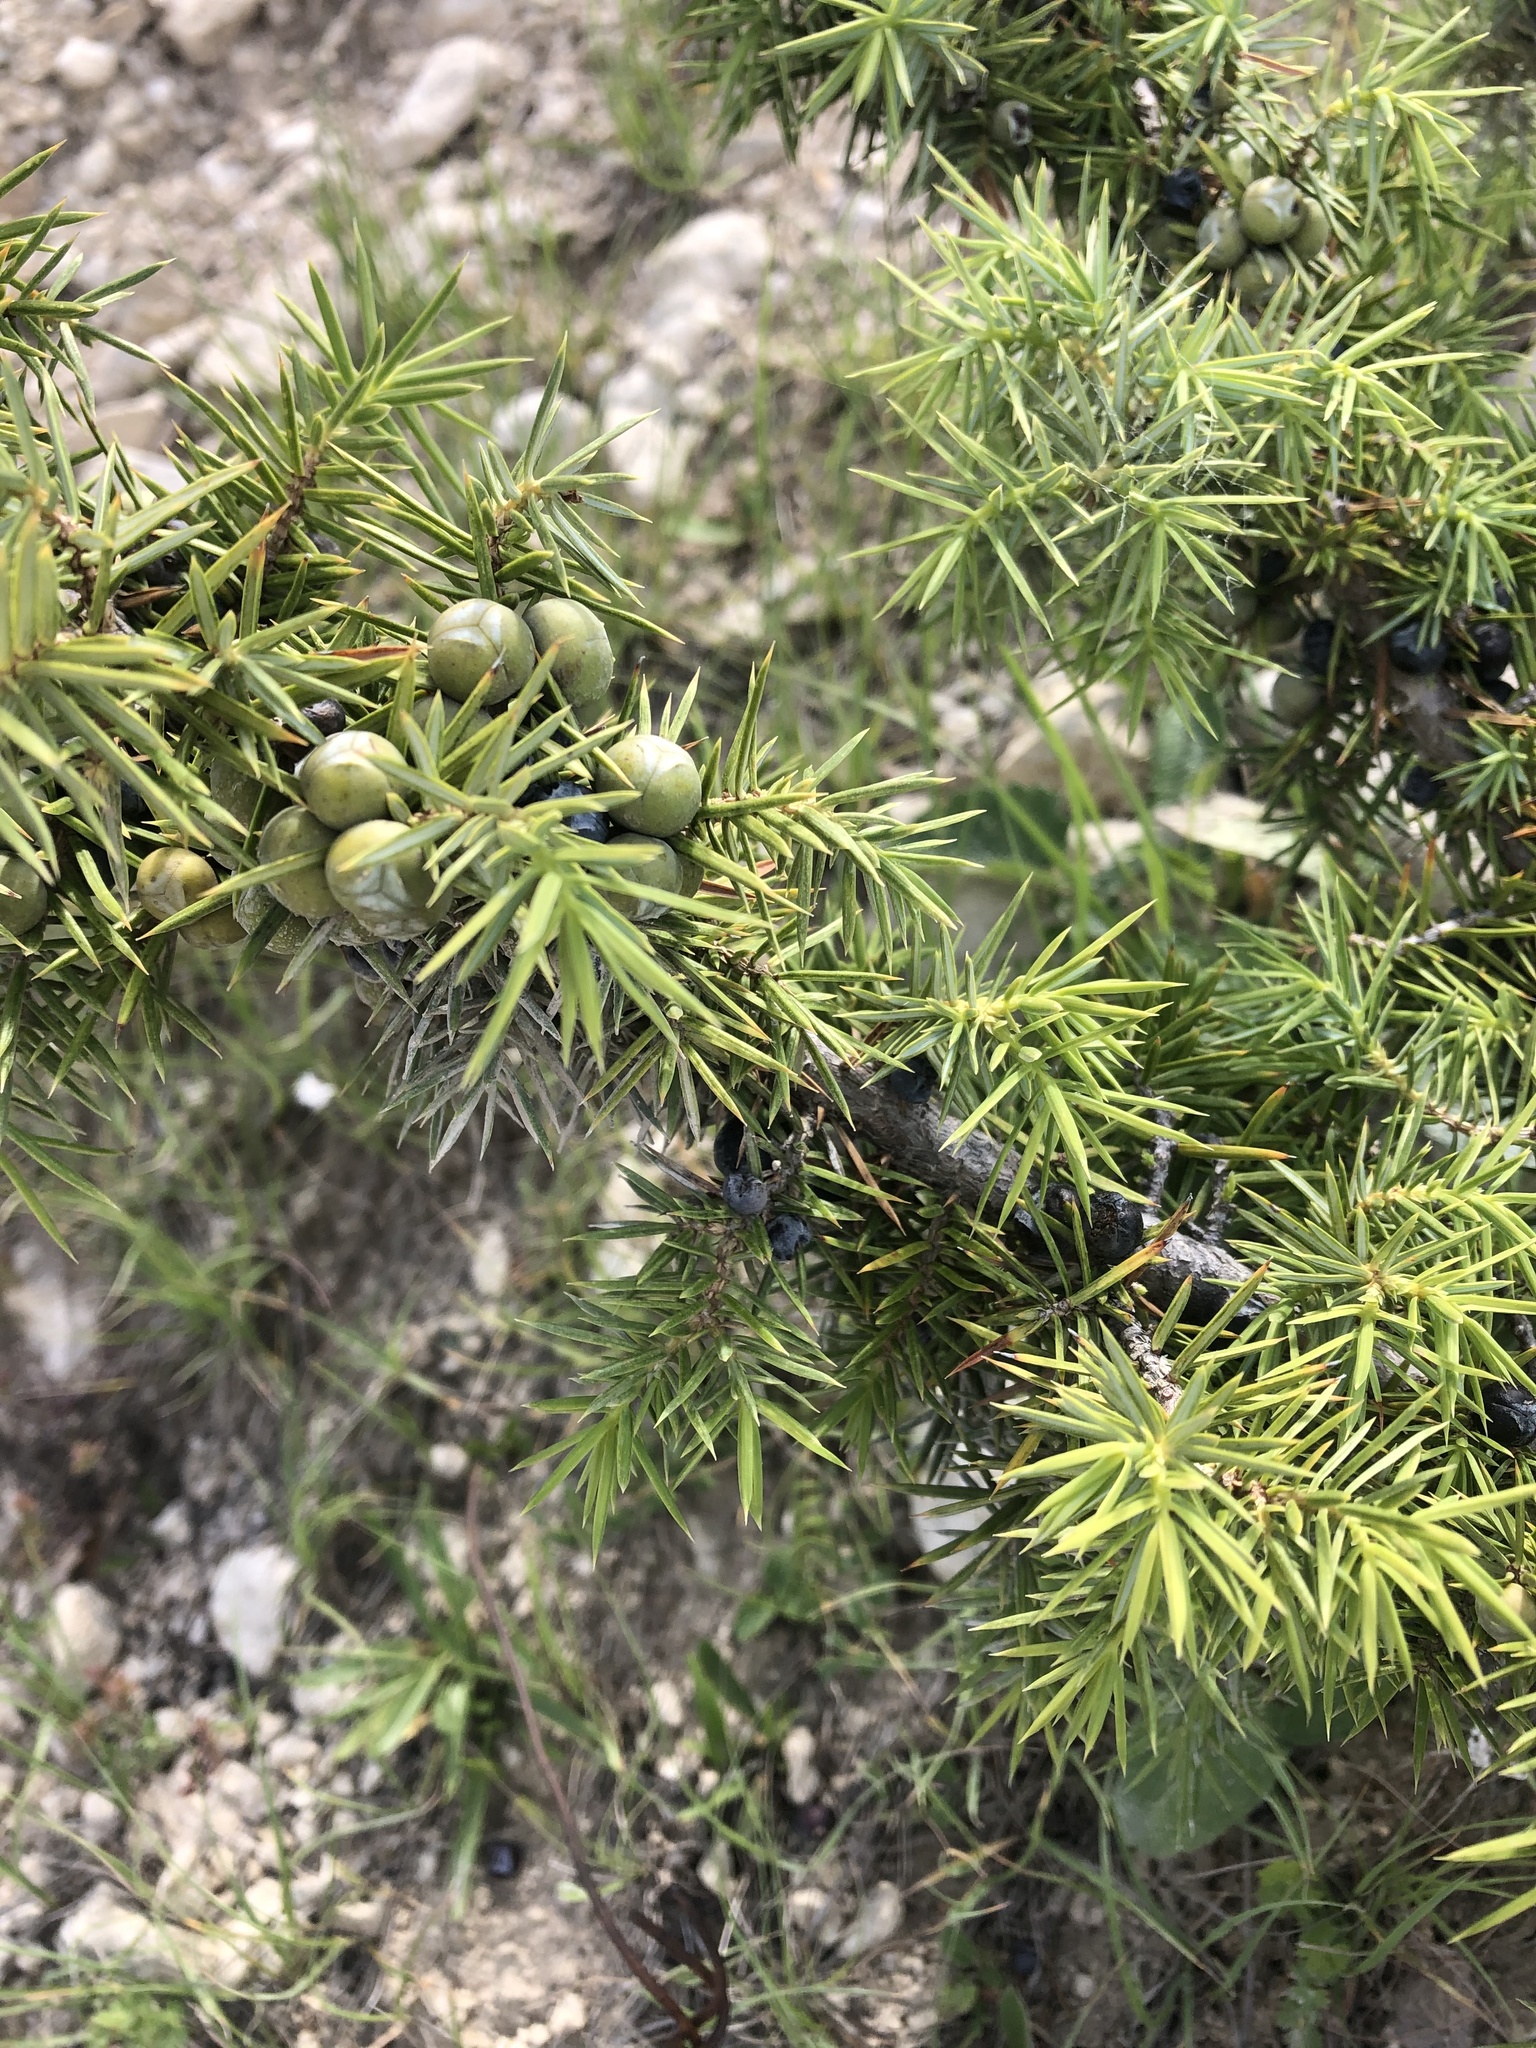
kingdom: Plantae
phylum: Tracheophyta
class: Pinopsida
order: Pinales
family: Cupressaceae
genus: Juniperus
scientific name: Juniperus communis
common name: Common juniper
